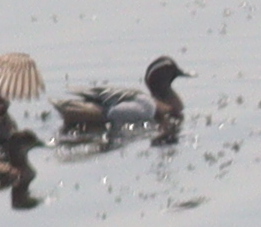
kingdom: Animalia
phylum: Chordata
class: Aves
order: Anseriformes
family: Anatidae
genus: Spatula
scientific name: Spatula querquedula
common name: Garganey
